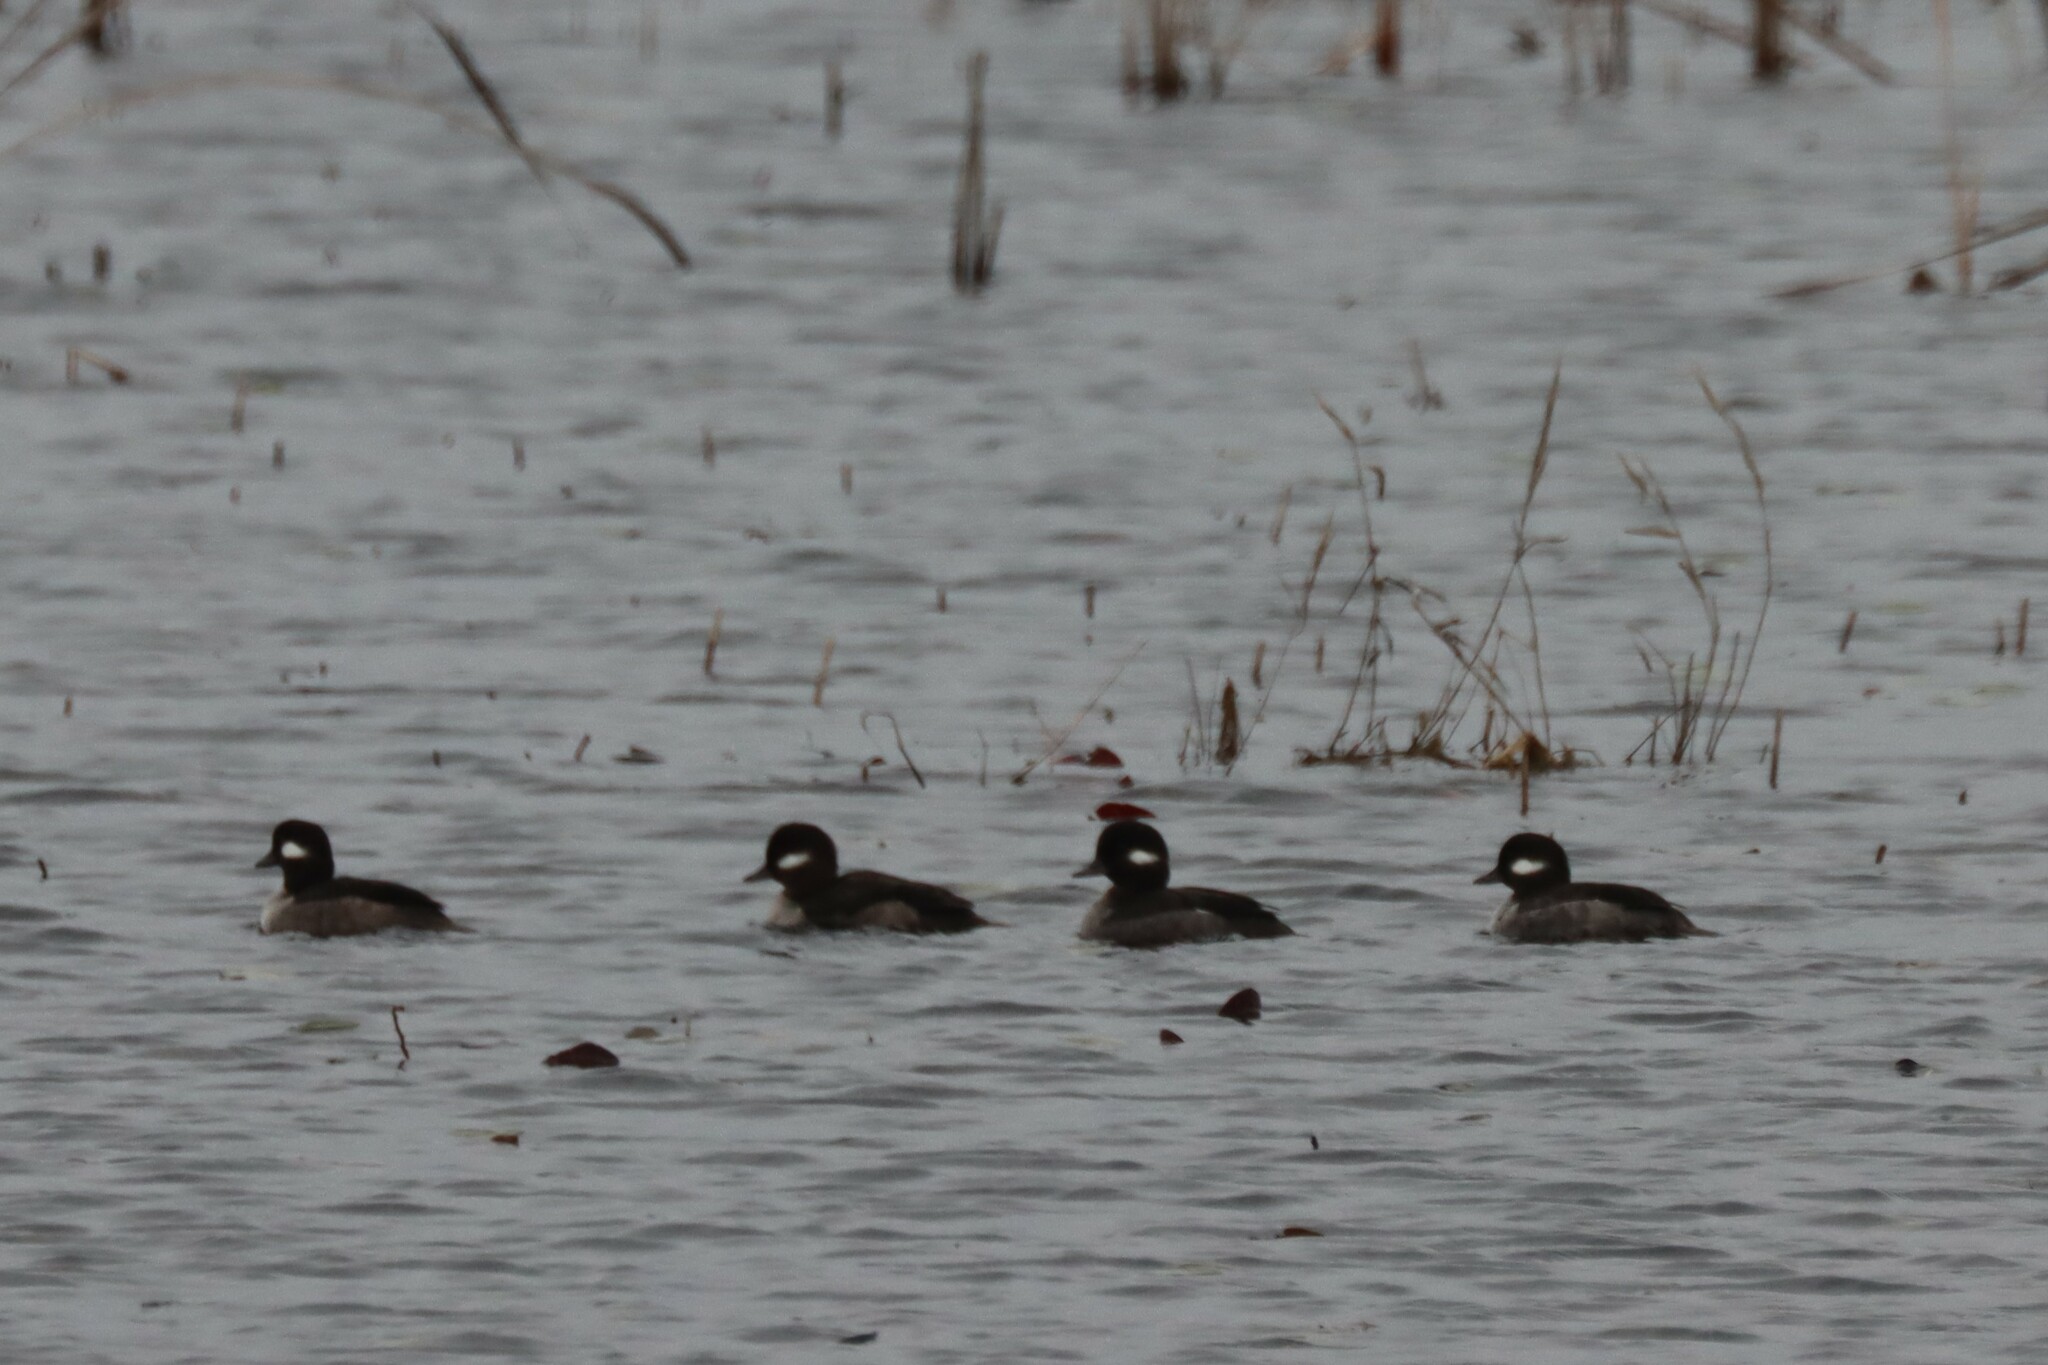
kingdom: Animalia
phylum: Chordata
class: Aves
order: Anseriformes
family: Anatidae
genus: Bucephala
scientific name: Bucephala albeola
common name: Bufflehead
